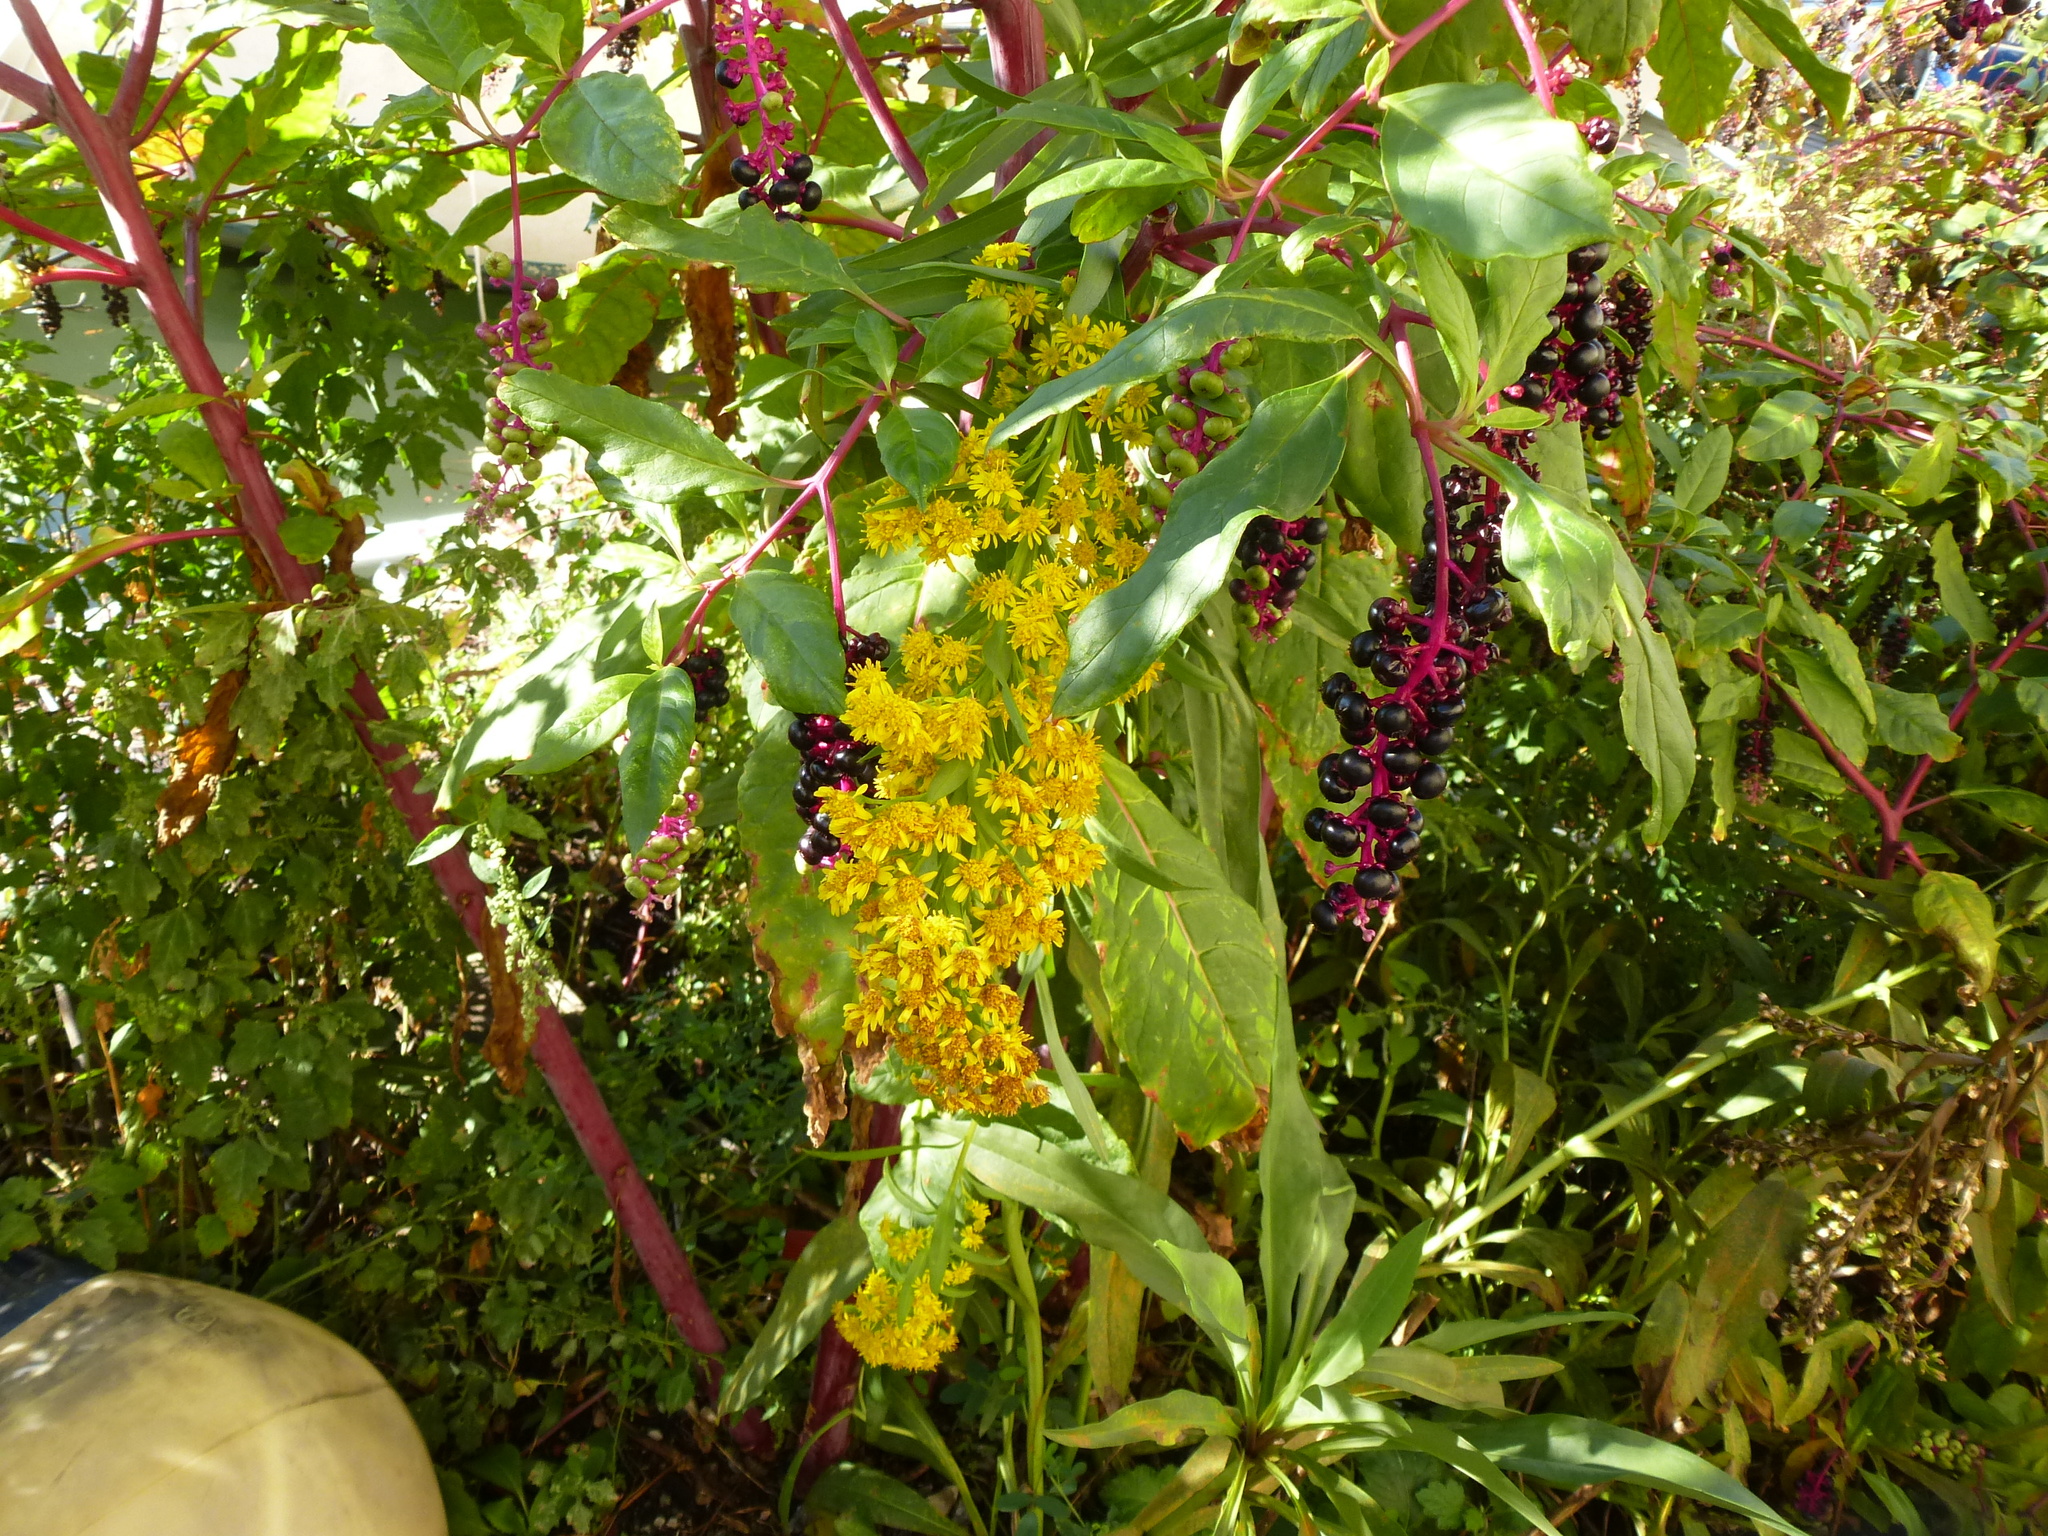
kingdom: Plantae
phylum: Tracheophyta
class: Magnoliopsida
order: Asterales
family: Asteraceae
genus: Solidago
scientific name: Solidago sempervirens
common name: Salt-marsh goldenrod
